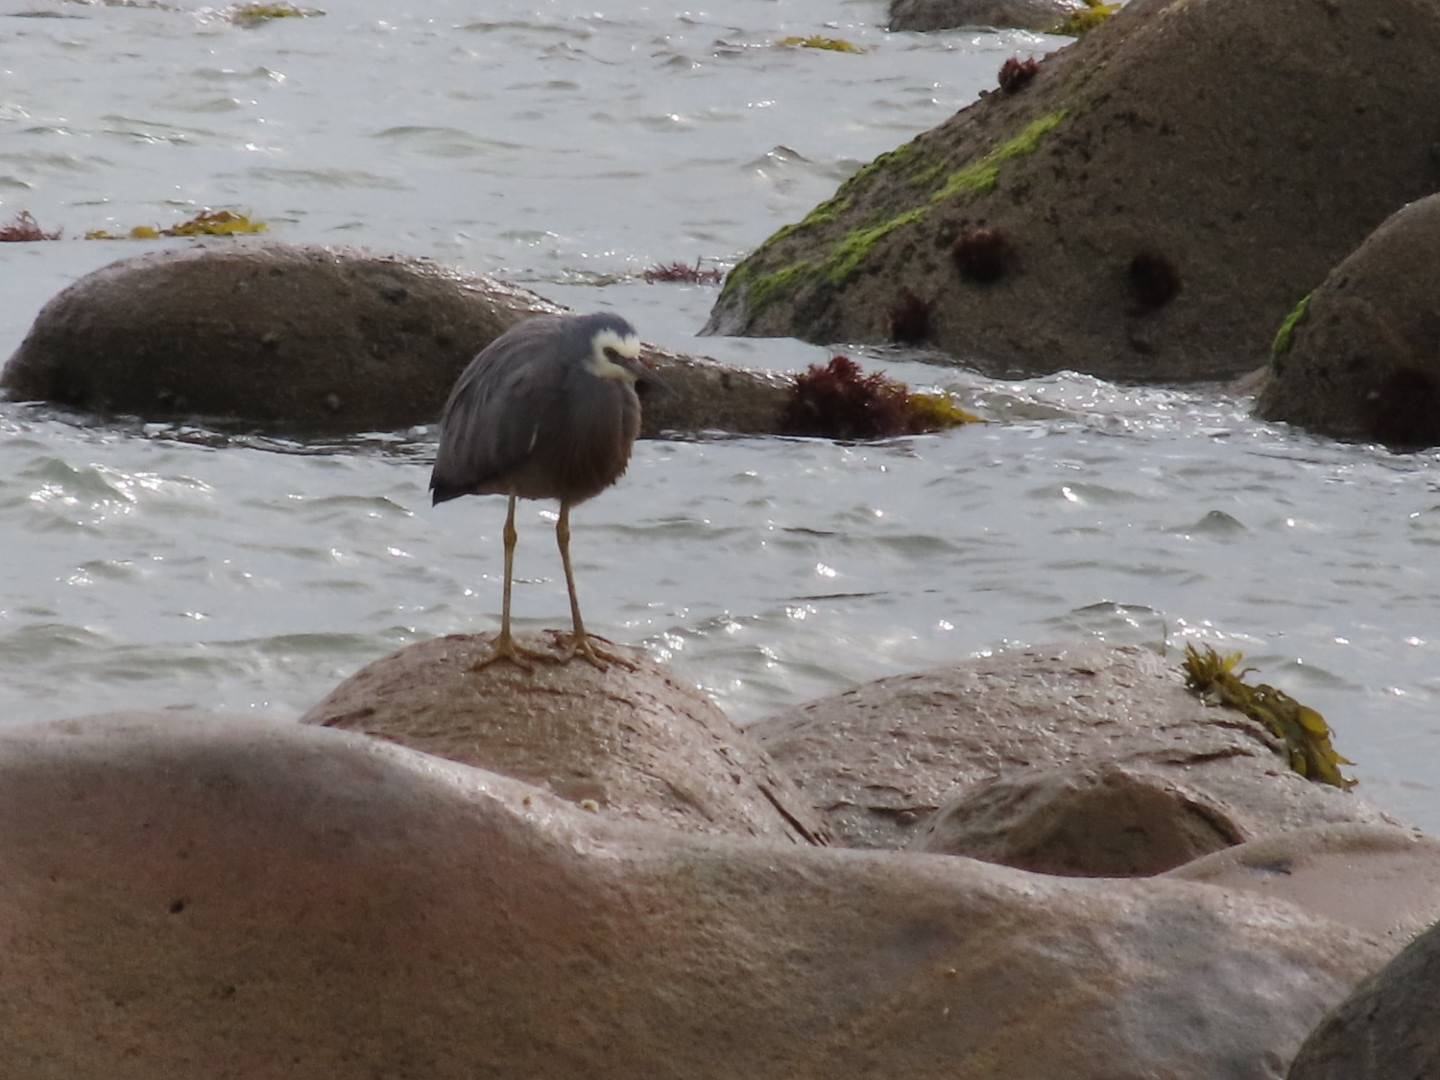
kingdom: Animalia
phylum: Chordata
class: Aves
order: Pelecaniformes
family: Ardeidae
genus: Egretta
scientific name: Egretta novaehollandiae
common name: White-faced heron
